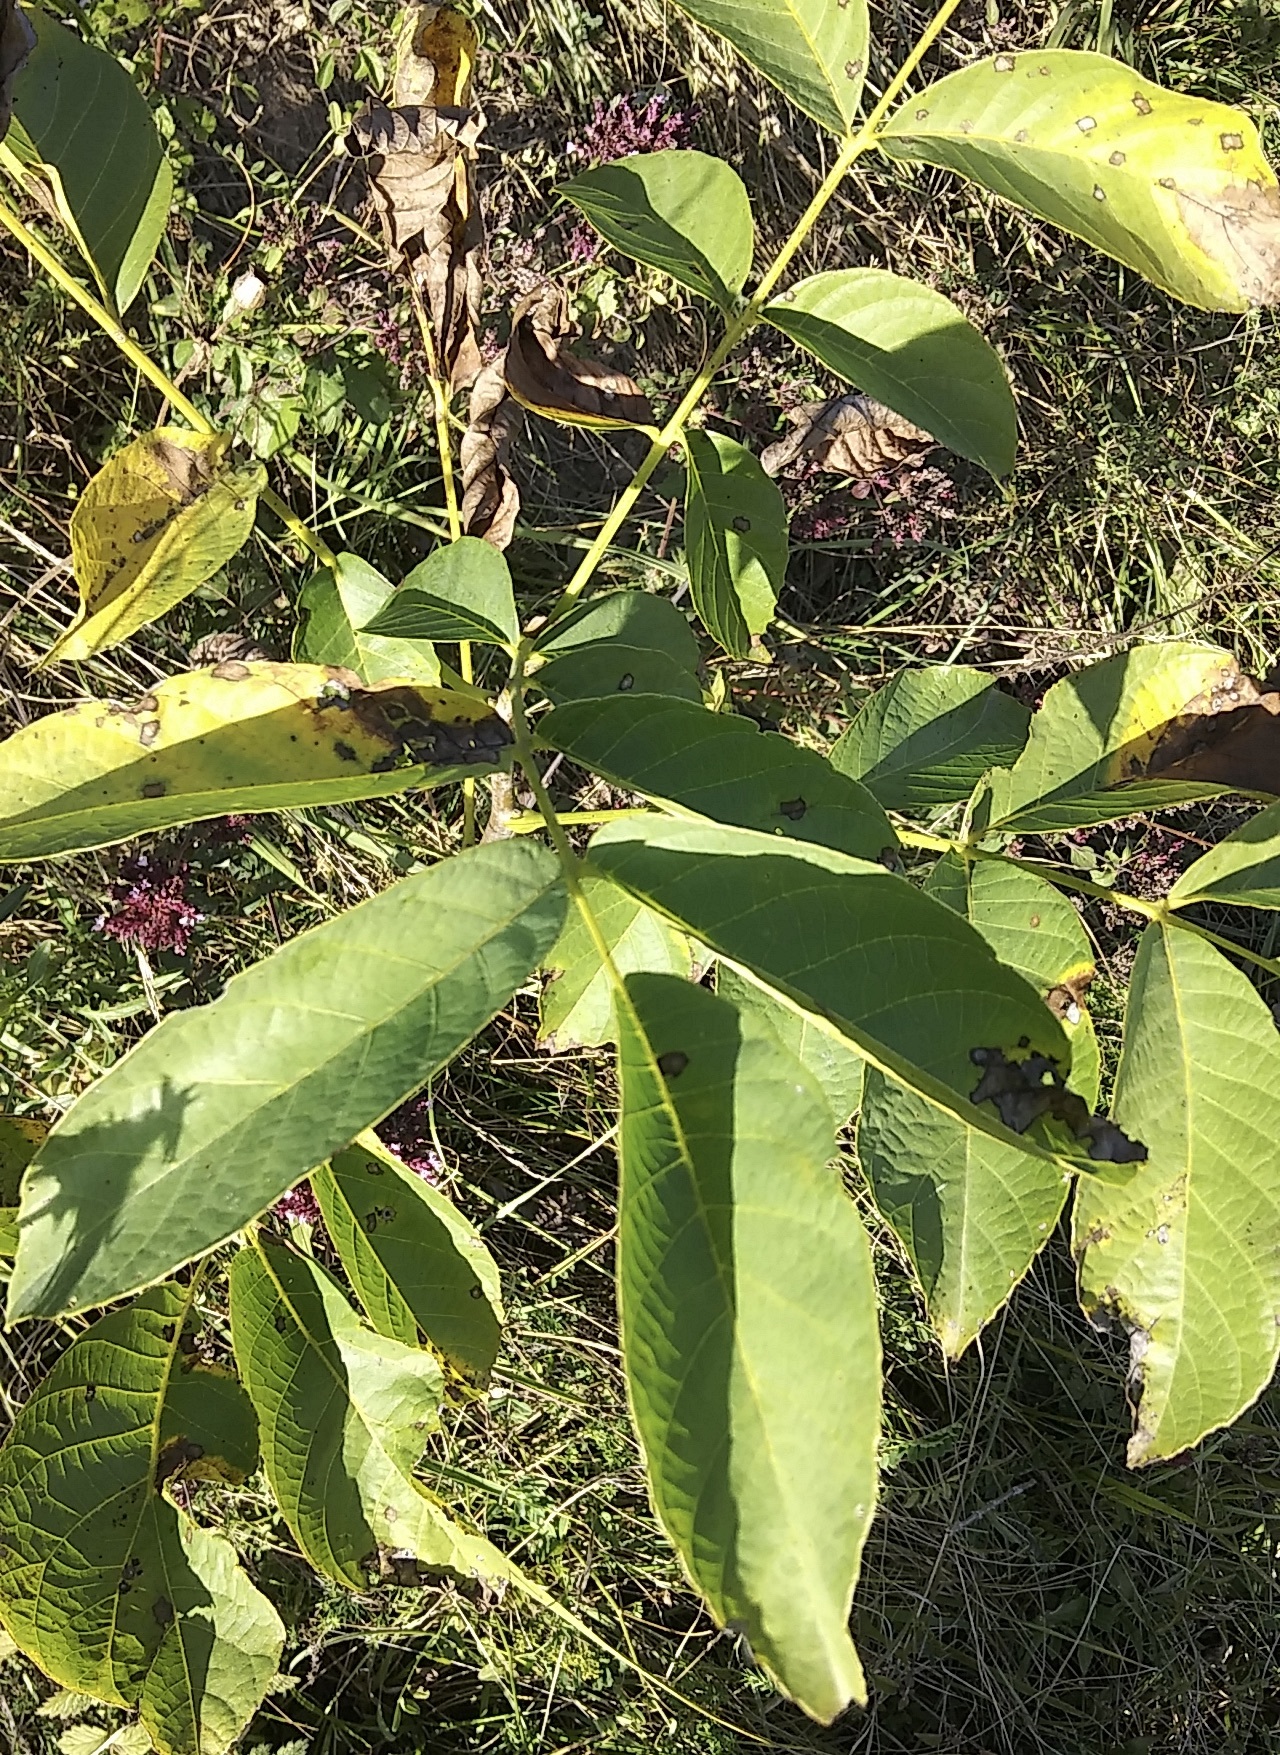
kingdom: Plantae
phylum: Tracheophyta
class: Magnoliopsida
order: Fagales
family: Juglandaceae
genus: Juglans
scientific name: Juglans regia
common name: Walnut
